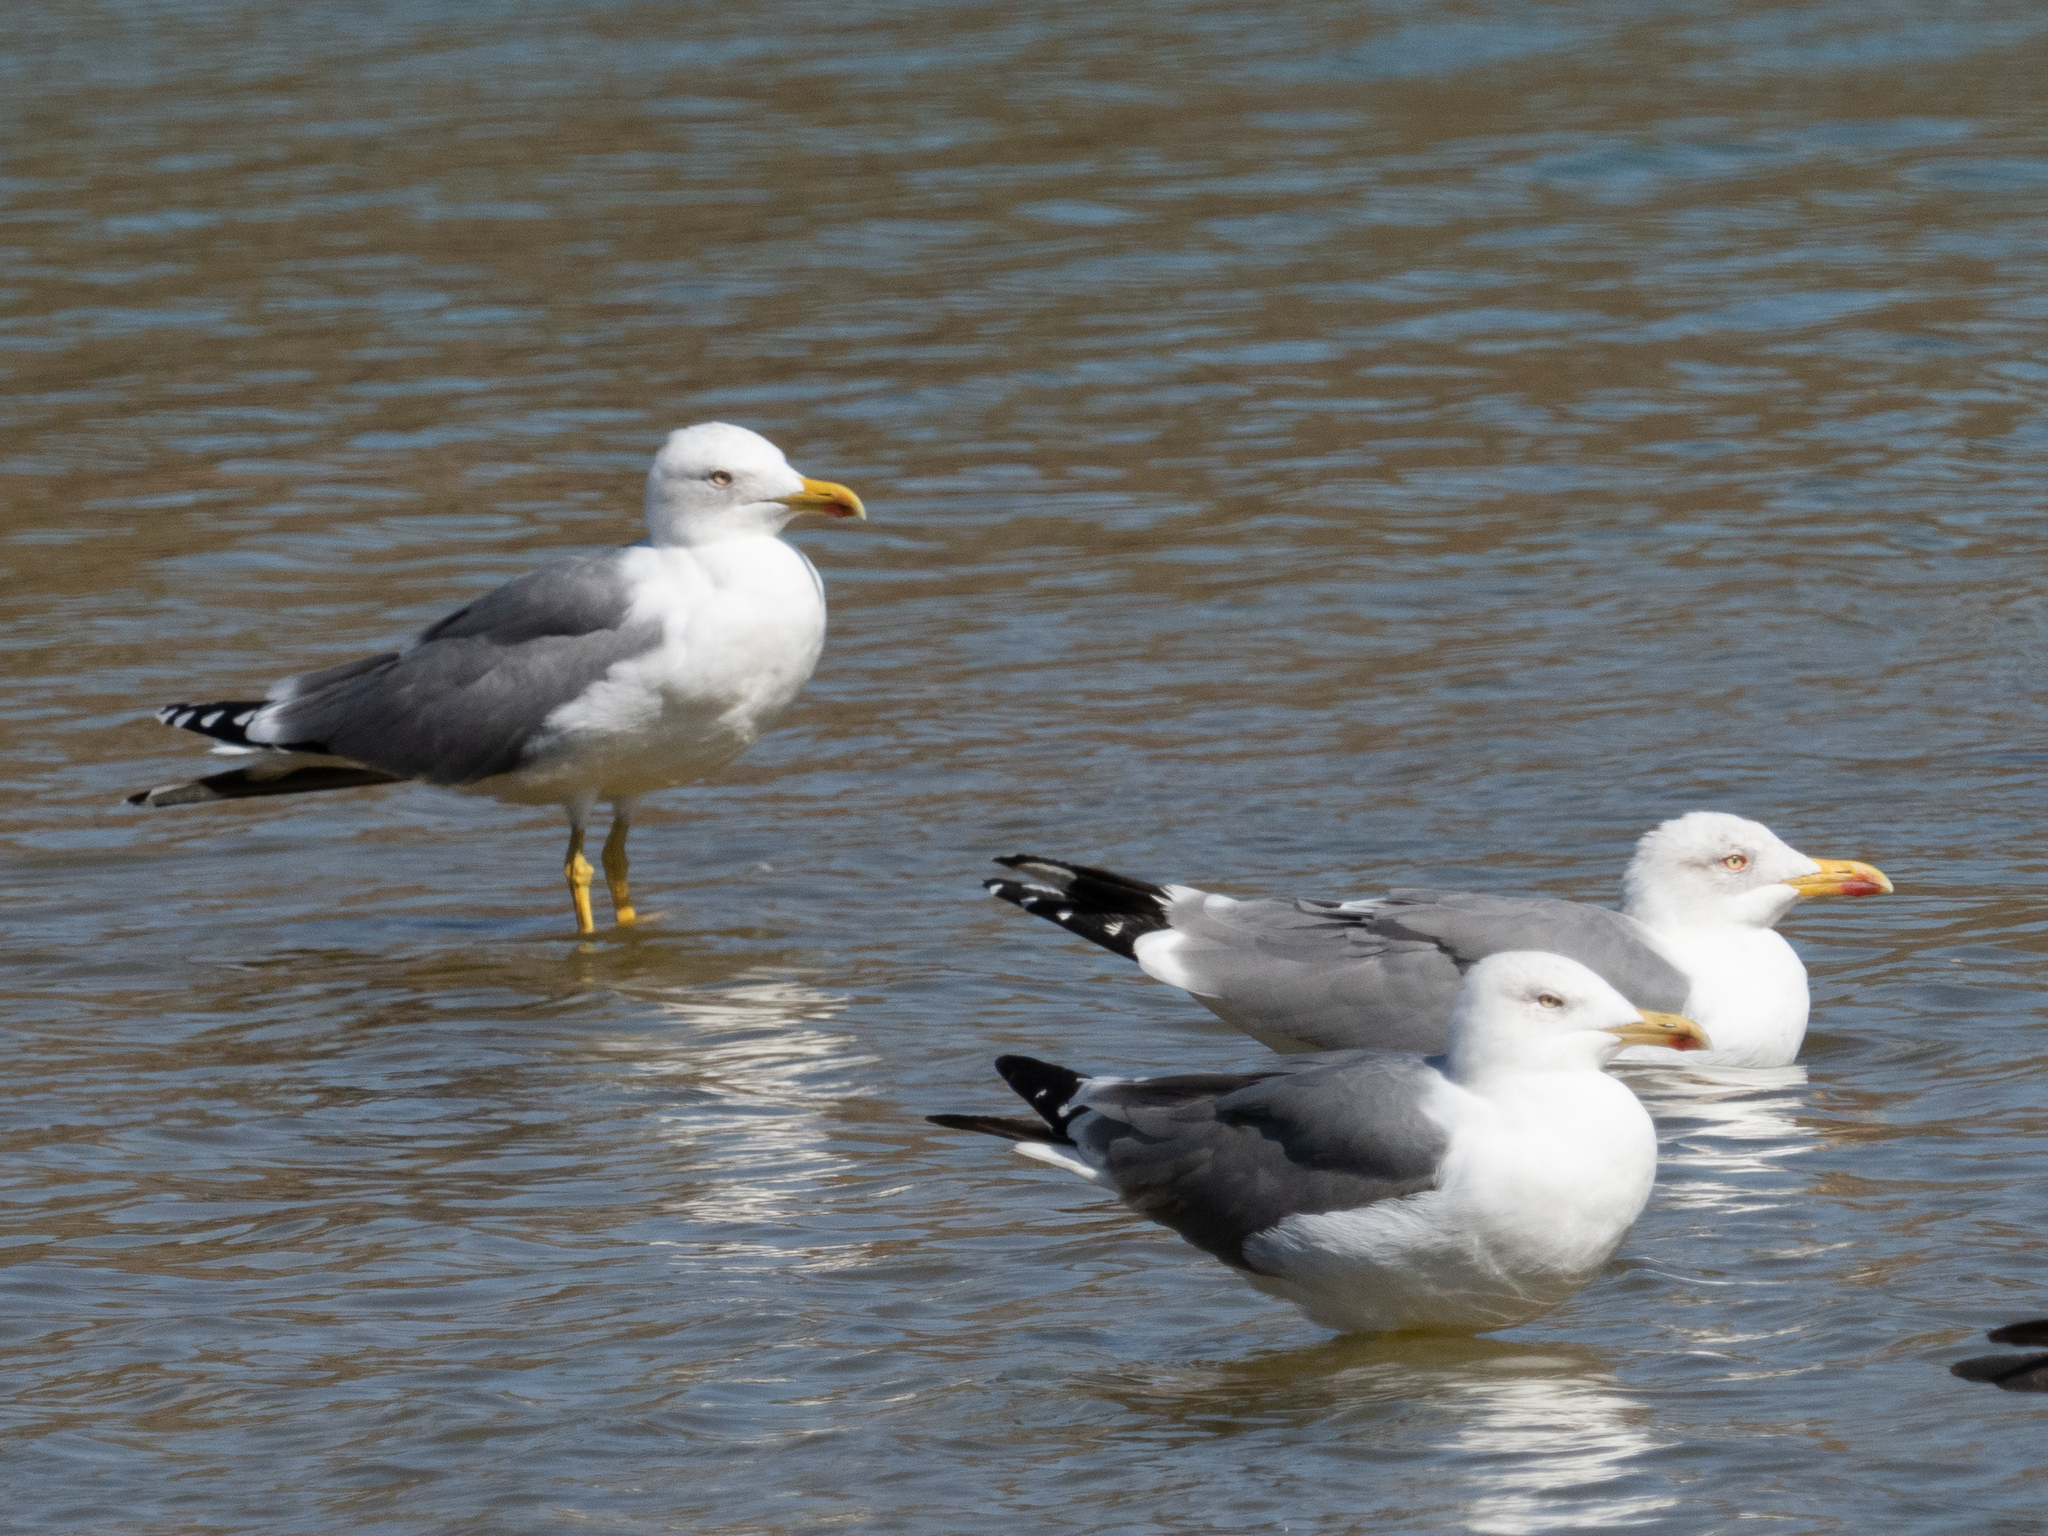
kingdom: Animalia
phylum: Chordata
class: Aves
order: Charadriiformes
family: Laridae
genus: Larus
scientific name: Larus michahellis
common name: Yellow-legged gull
